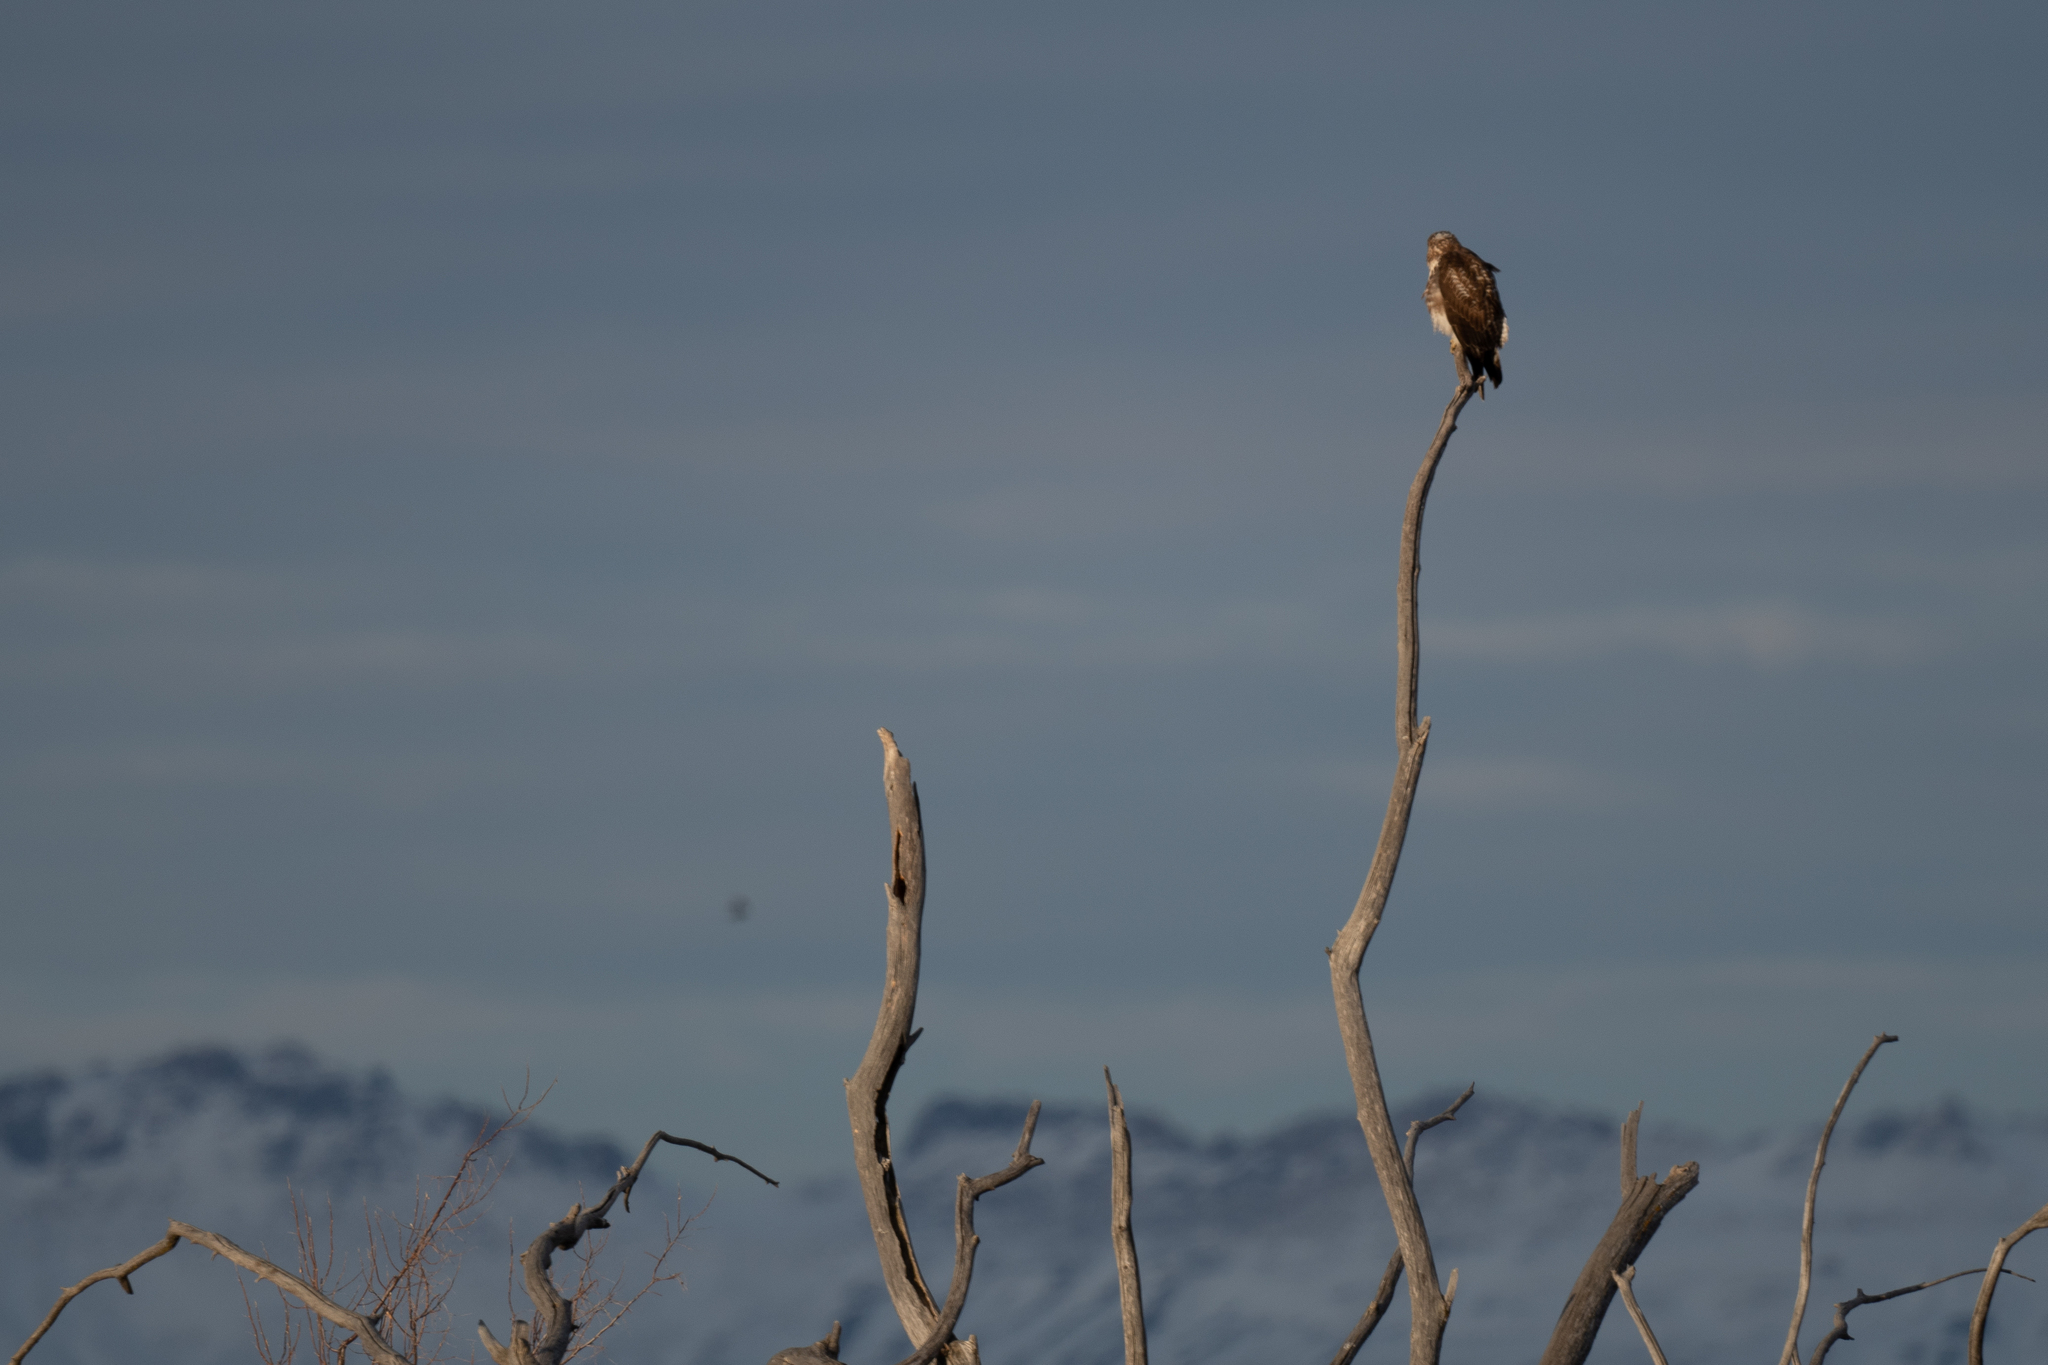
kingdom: Animalia
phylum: Chordata
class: Aves
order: Accipitriformes
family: Accipitridae
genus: Buteo
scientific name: Buteo jamaicensis
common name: Red-tailed hawk
